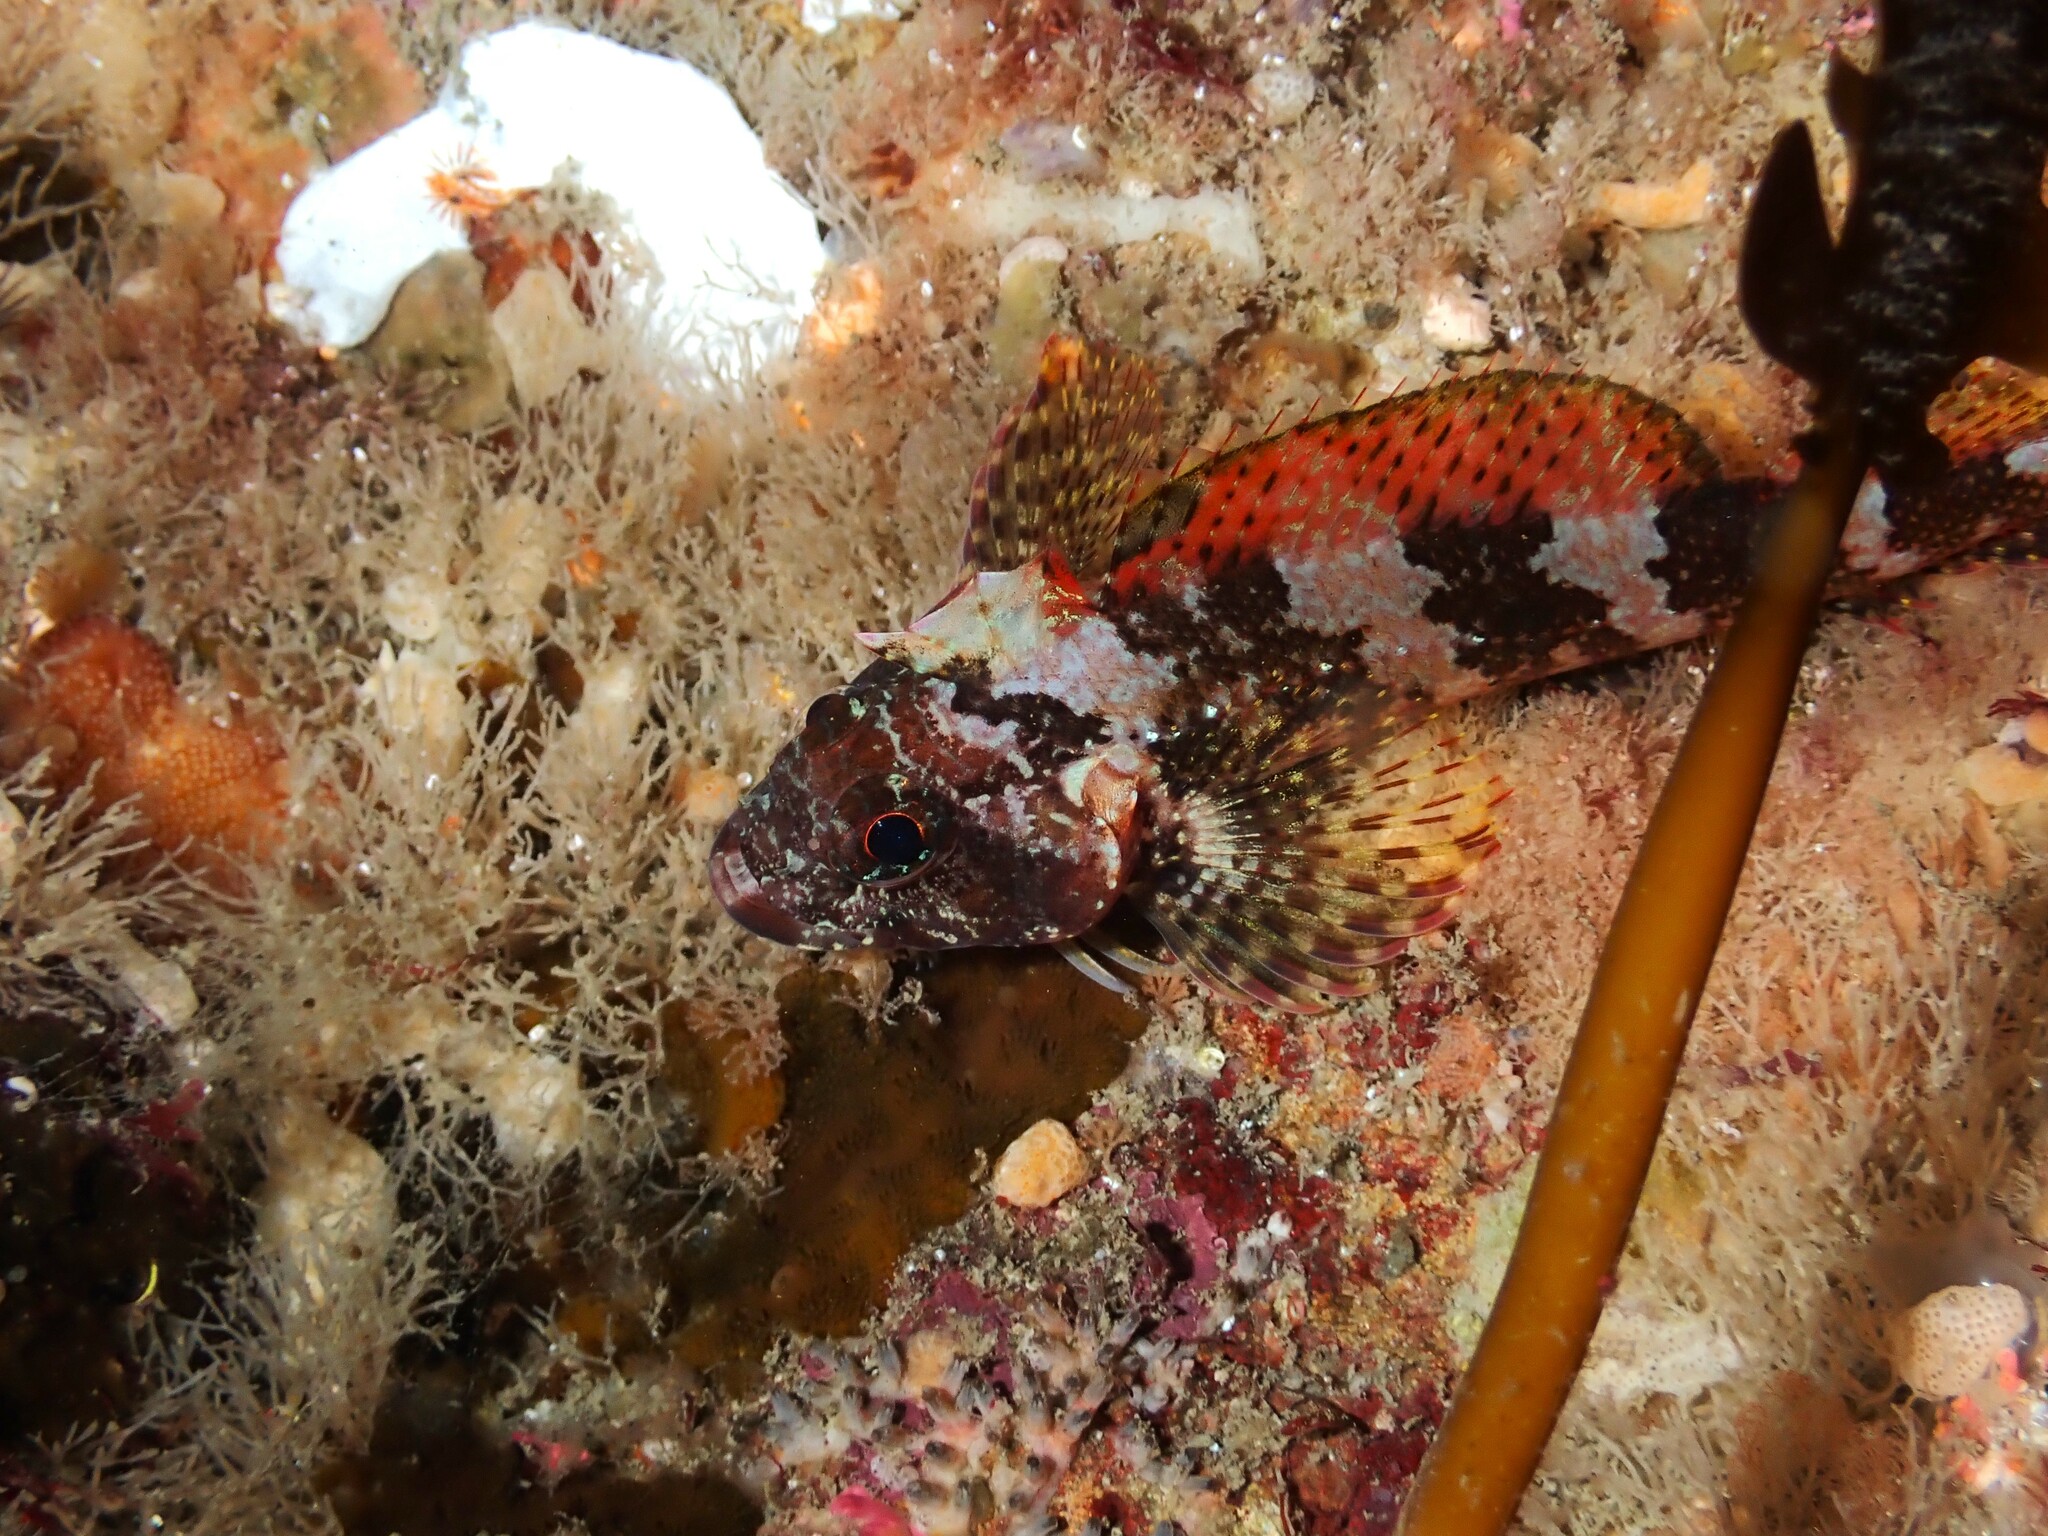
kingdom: Animalia
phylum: Chordata
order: Perciformes
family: Tripterygiidae
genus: Karalepis
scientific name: Karalepis stewarti
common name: Scaly headed triplefin
